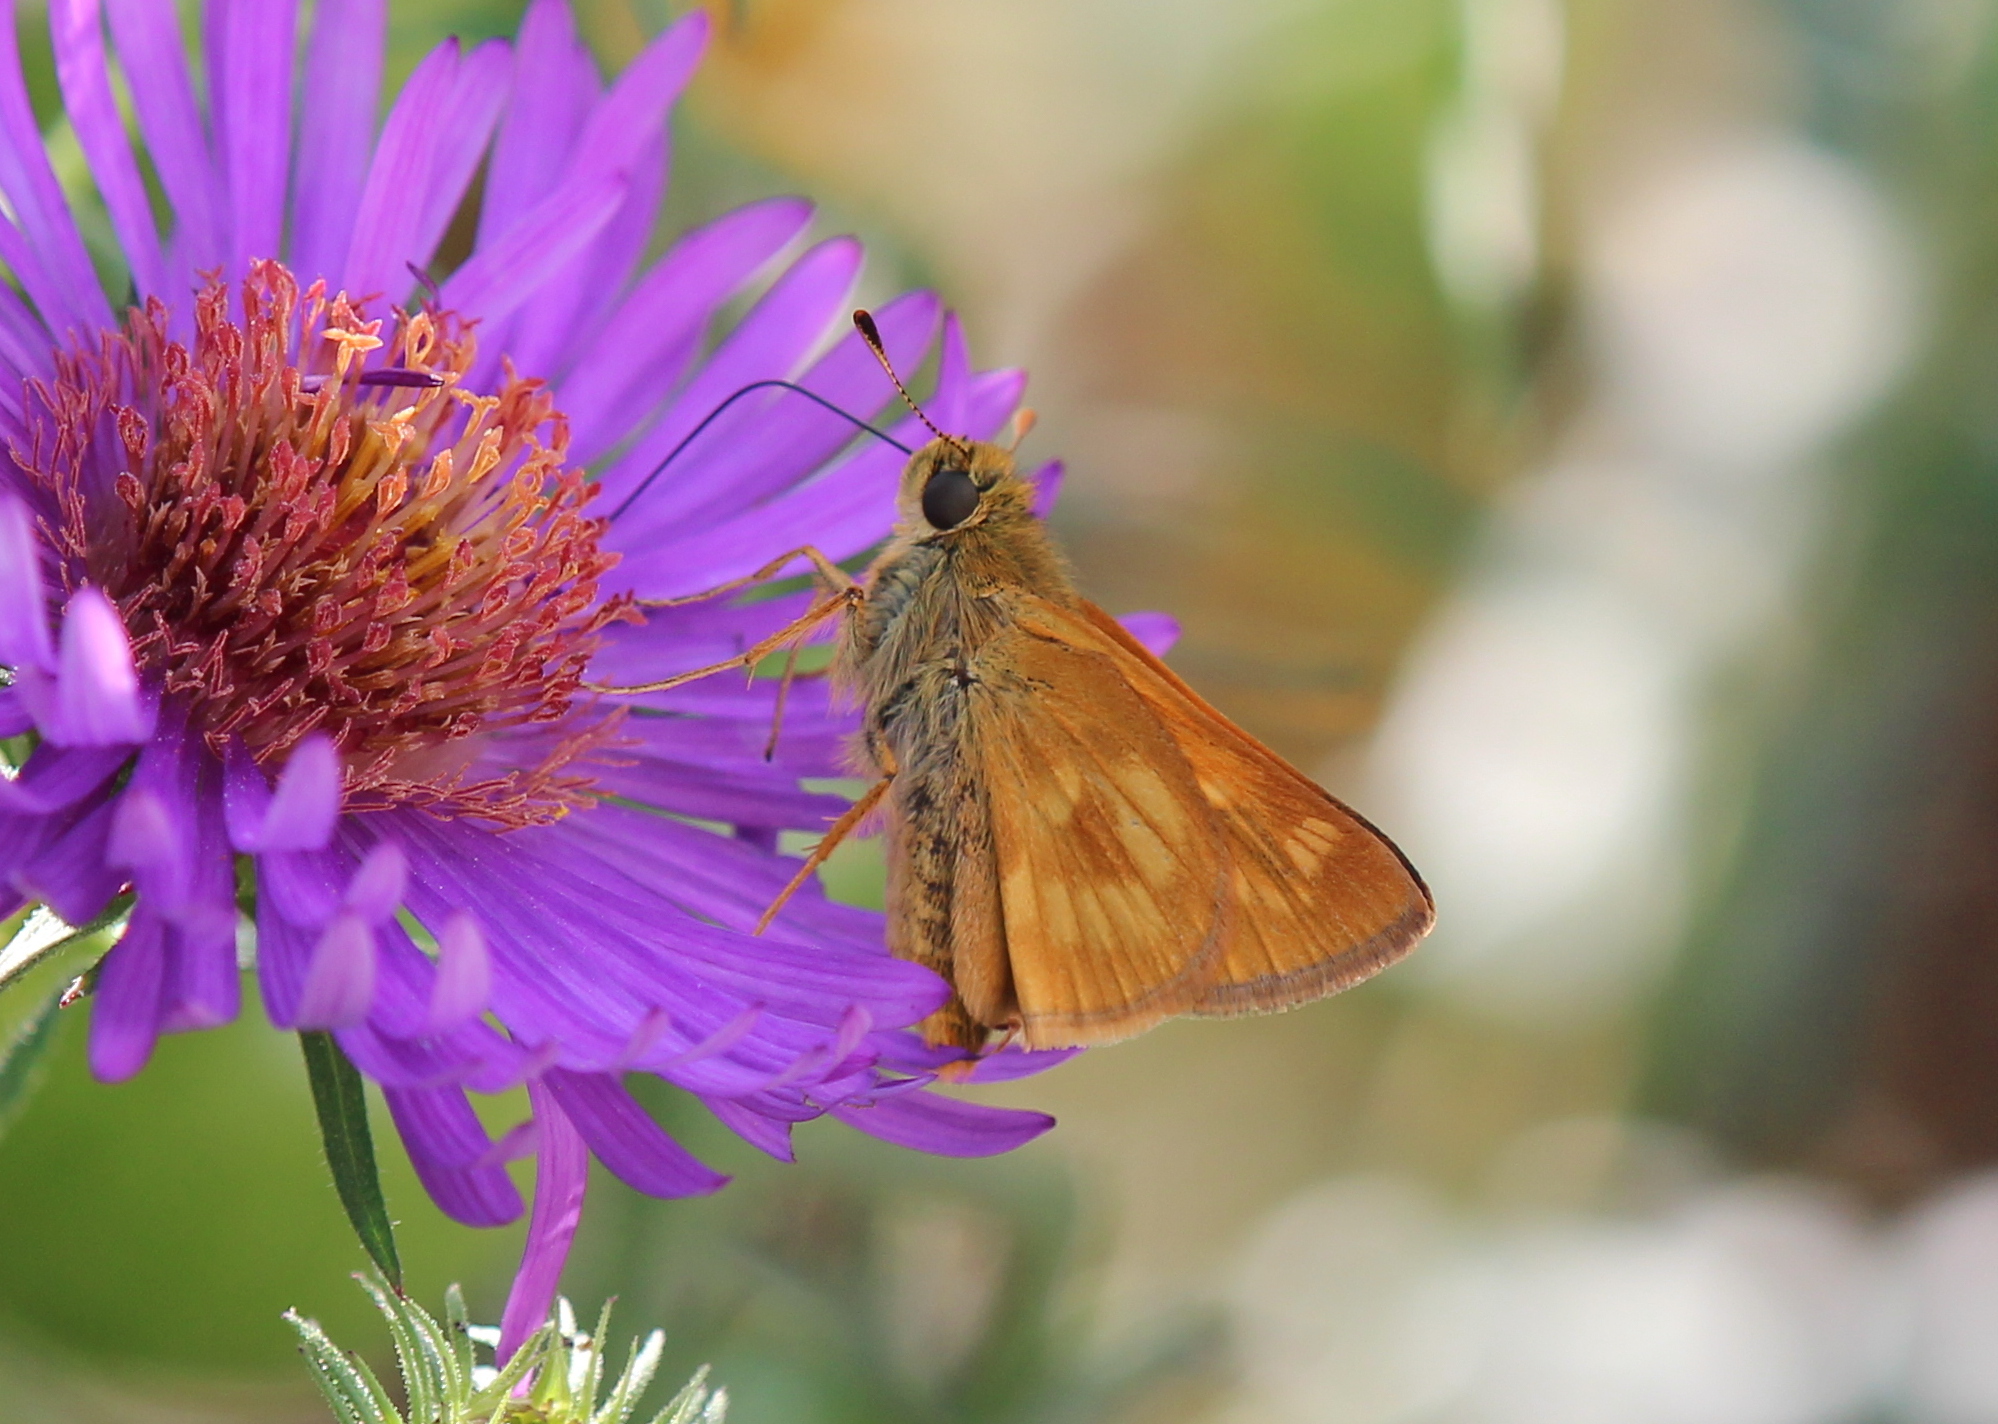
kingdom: Animalia
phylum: Arthropoda
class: Insecta
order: Lepidoptera
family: Hesperiidae
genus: Polites
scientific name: Polites mystic
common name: Long dash
